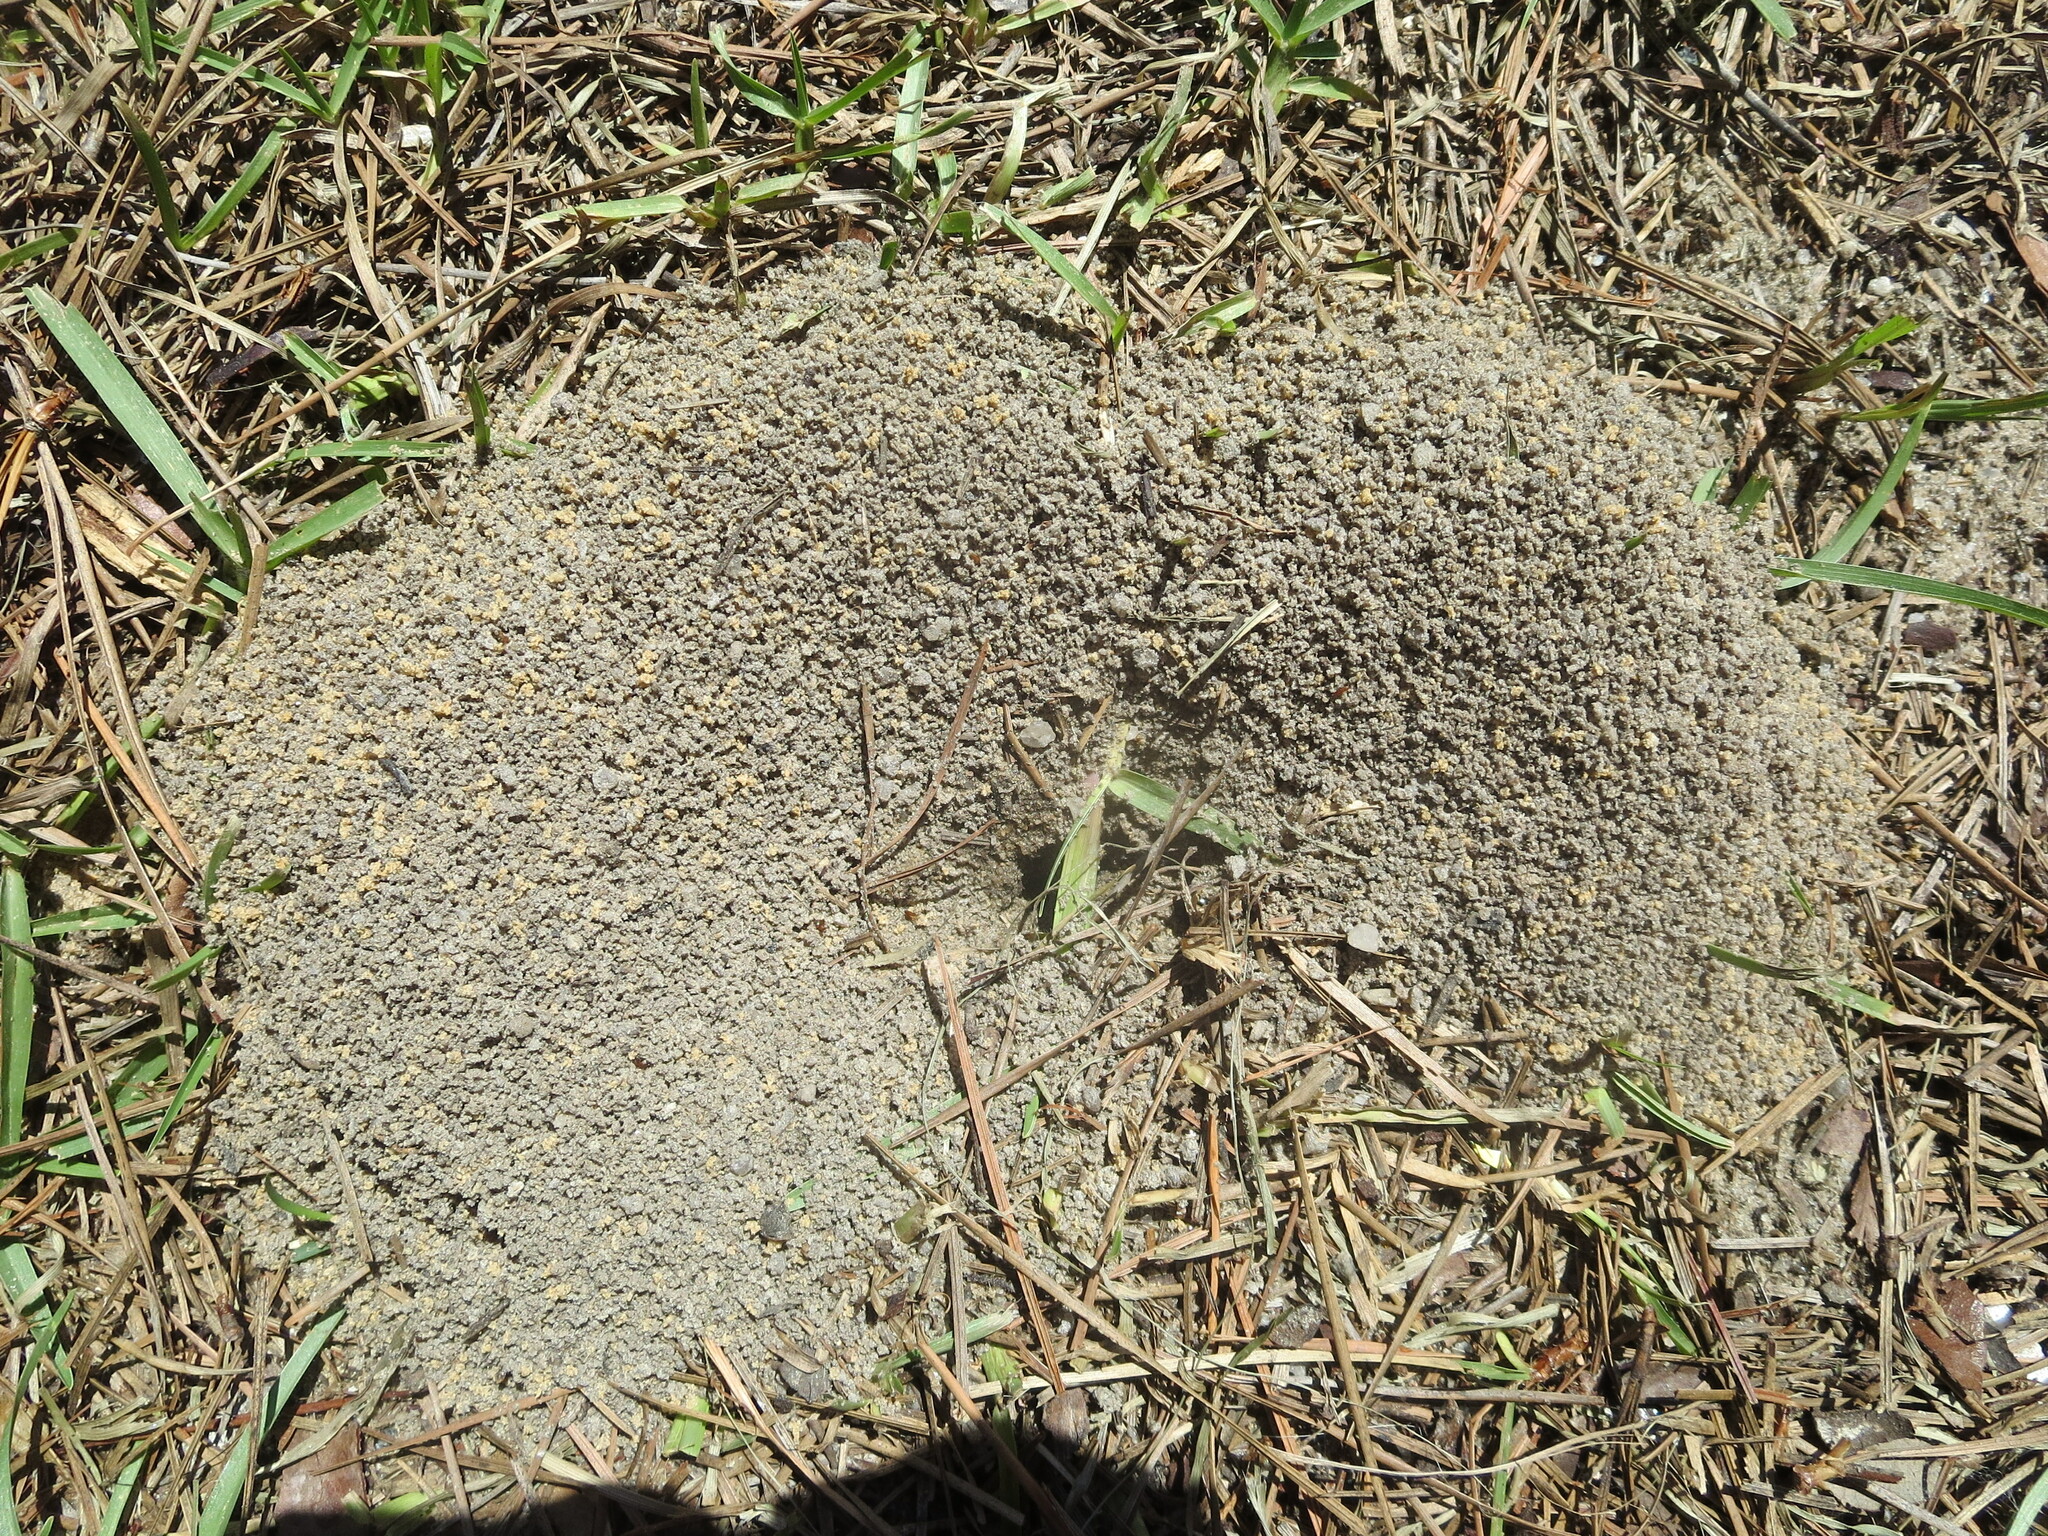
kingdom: Animalia
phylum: Arthropoda
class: Insecta
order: Hymenoptera
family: Formicidae
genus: Trachymyrmex
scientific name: Trachymyrmex septentrionalis
